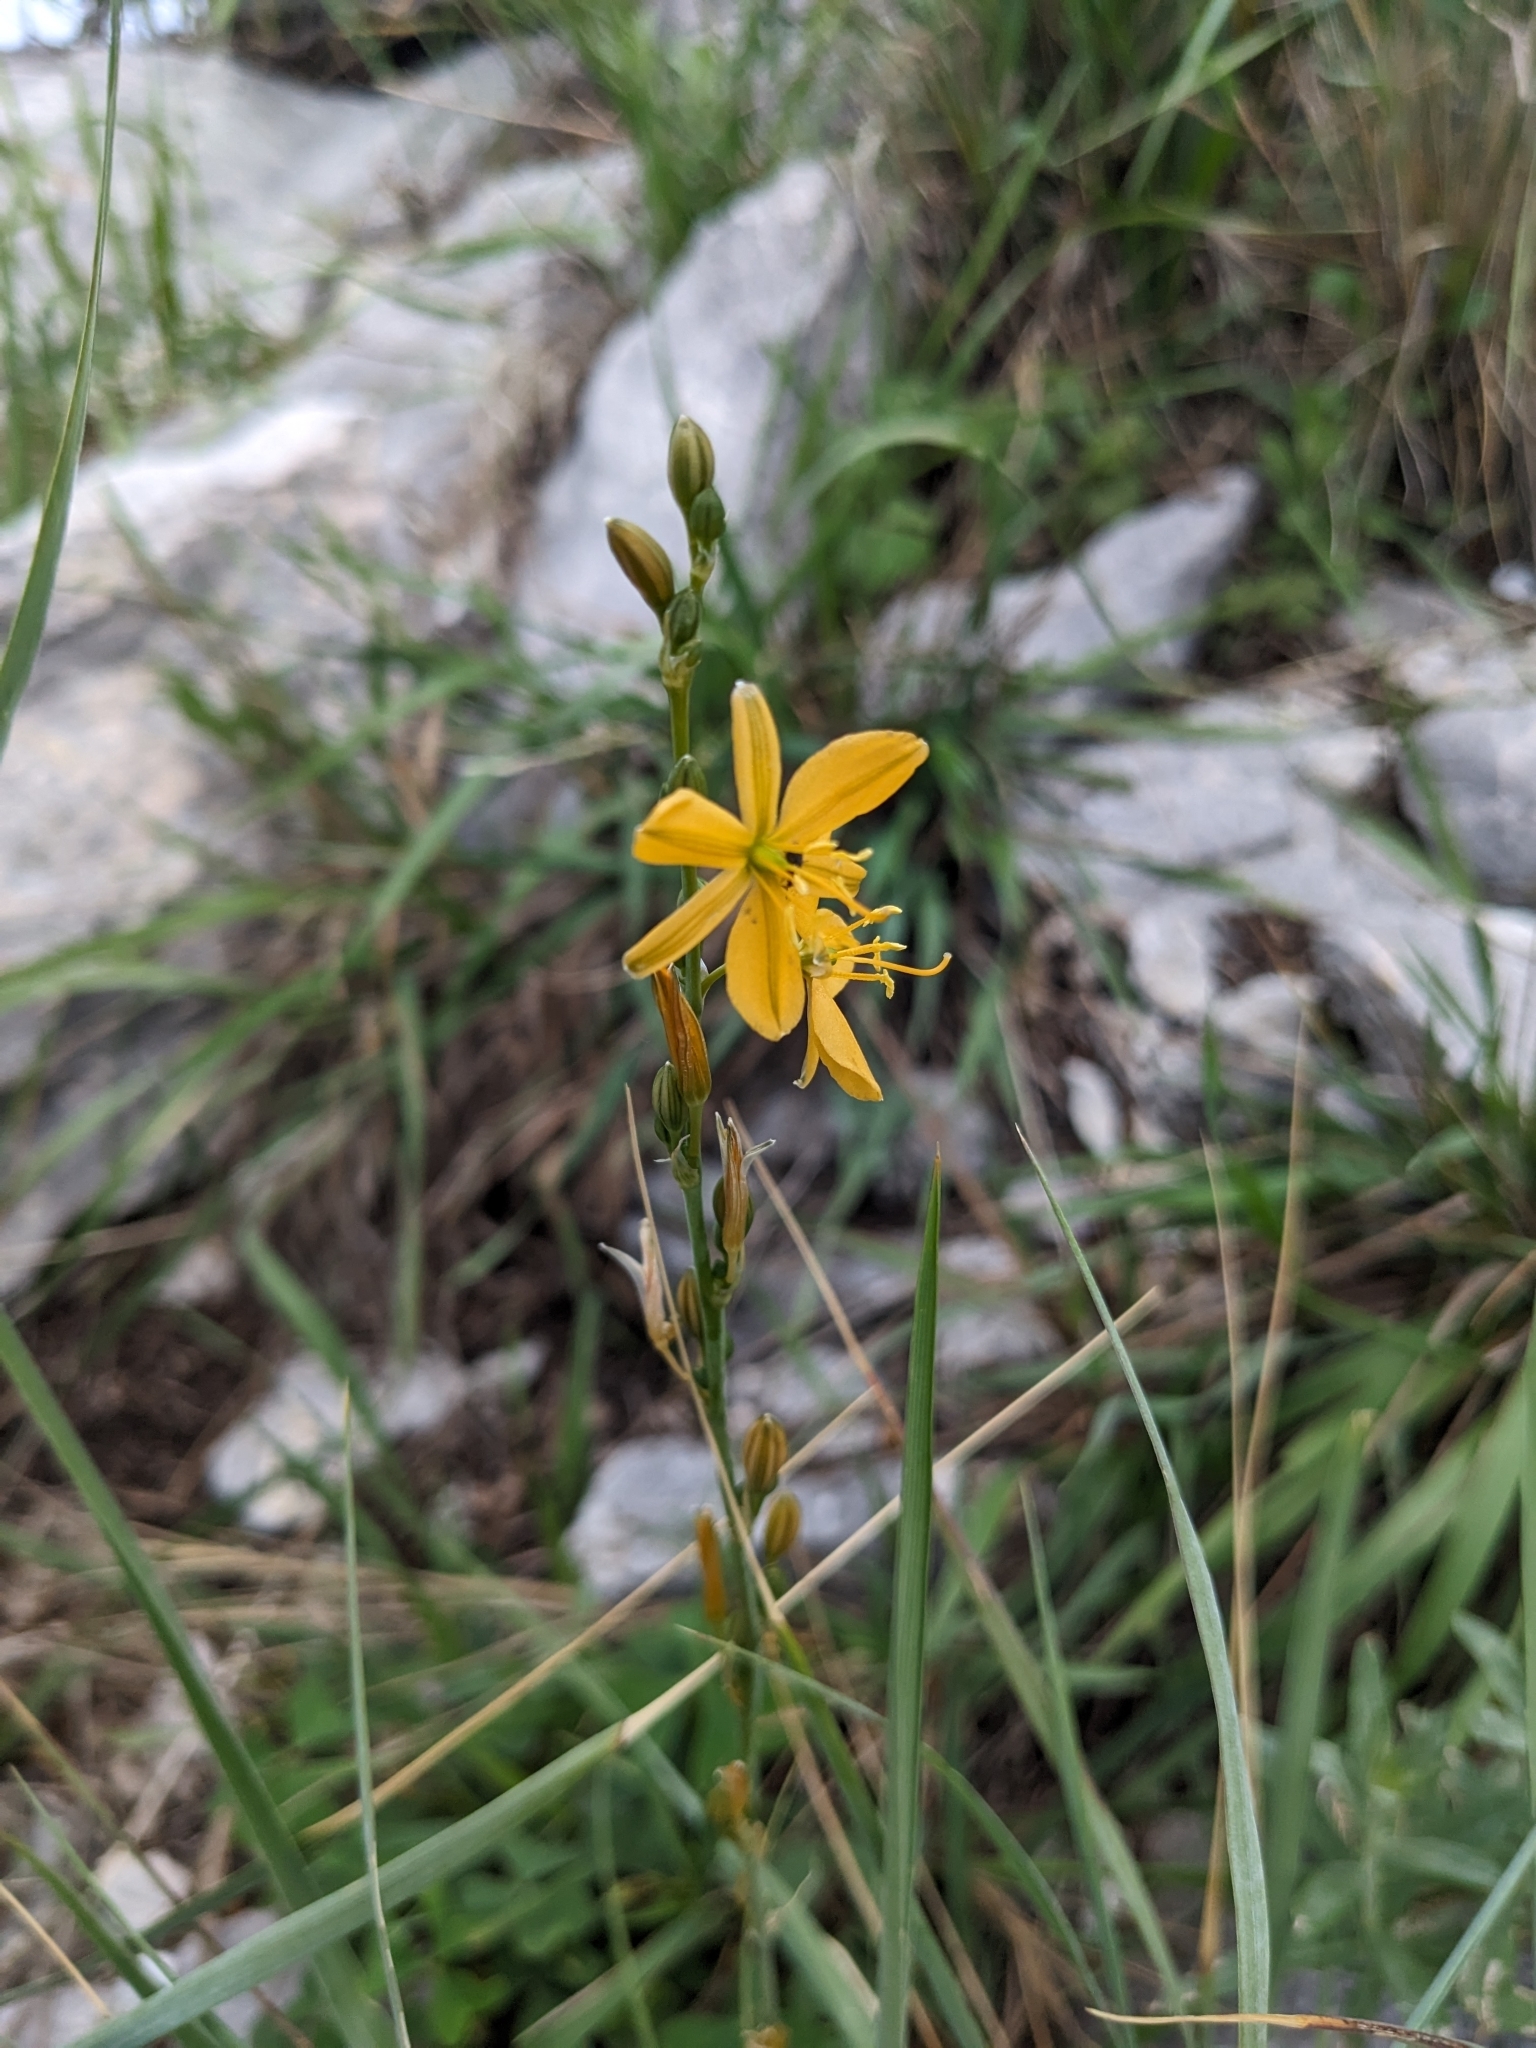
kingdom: Plantae
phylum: Tracheophyta
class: Liliopsida
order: Asparagales
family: Asparagaceae
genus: Echeandia
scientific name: Echeandia flavescens
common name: Amberlily
